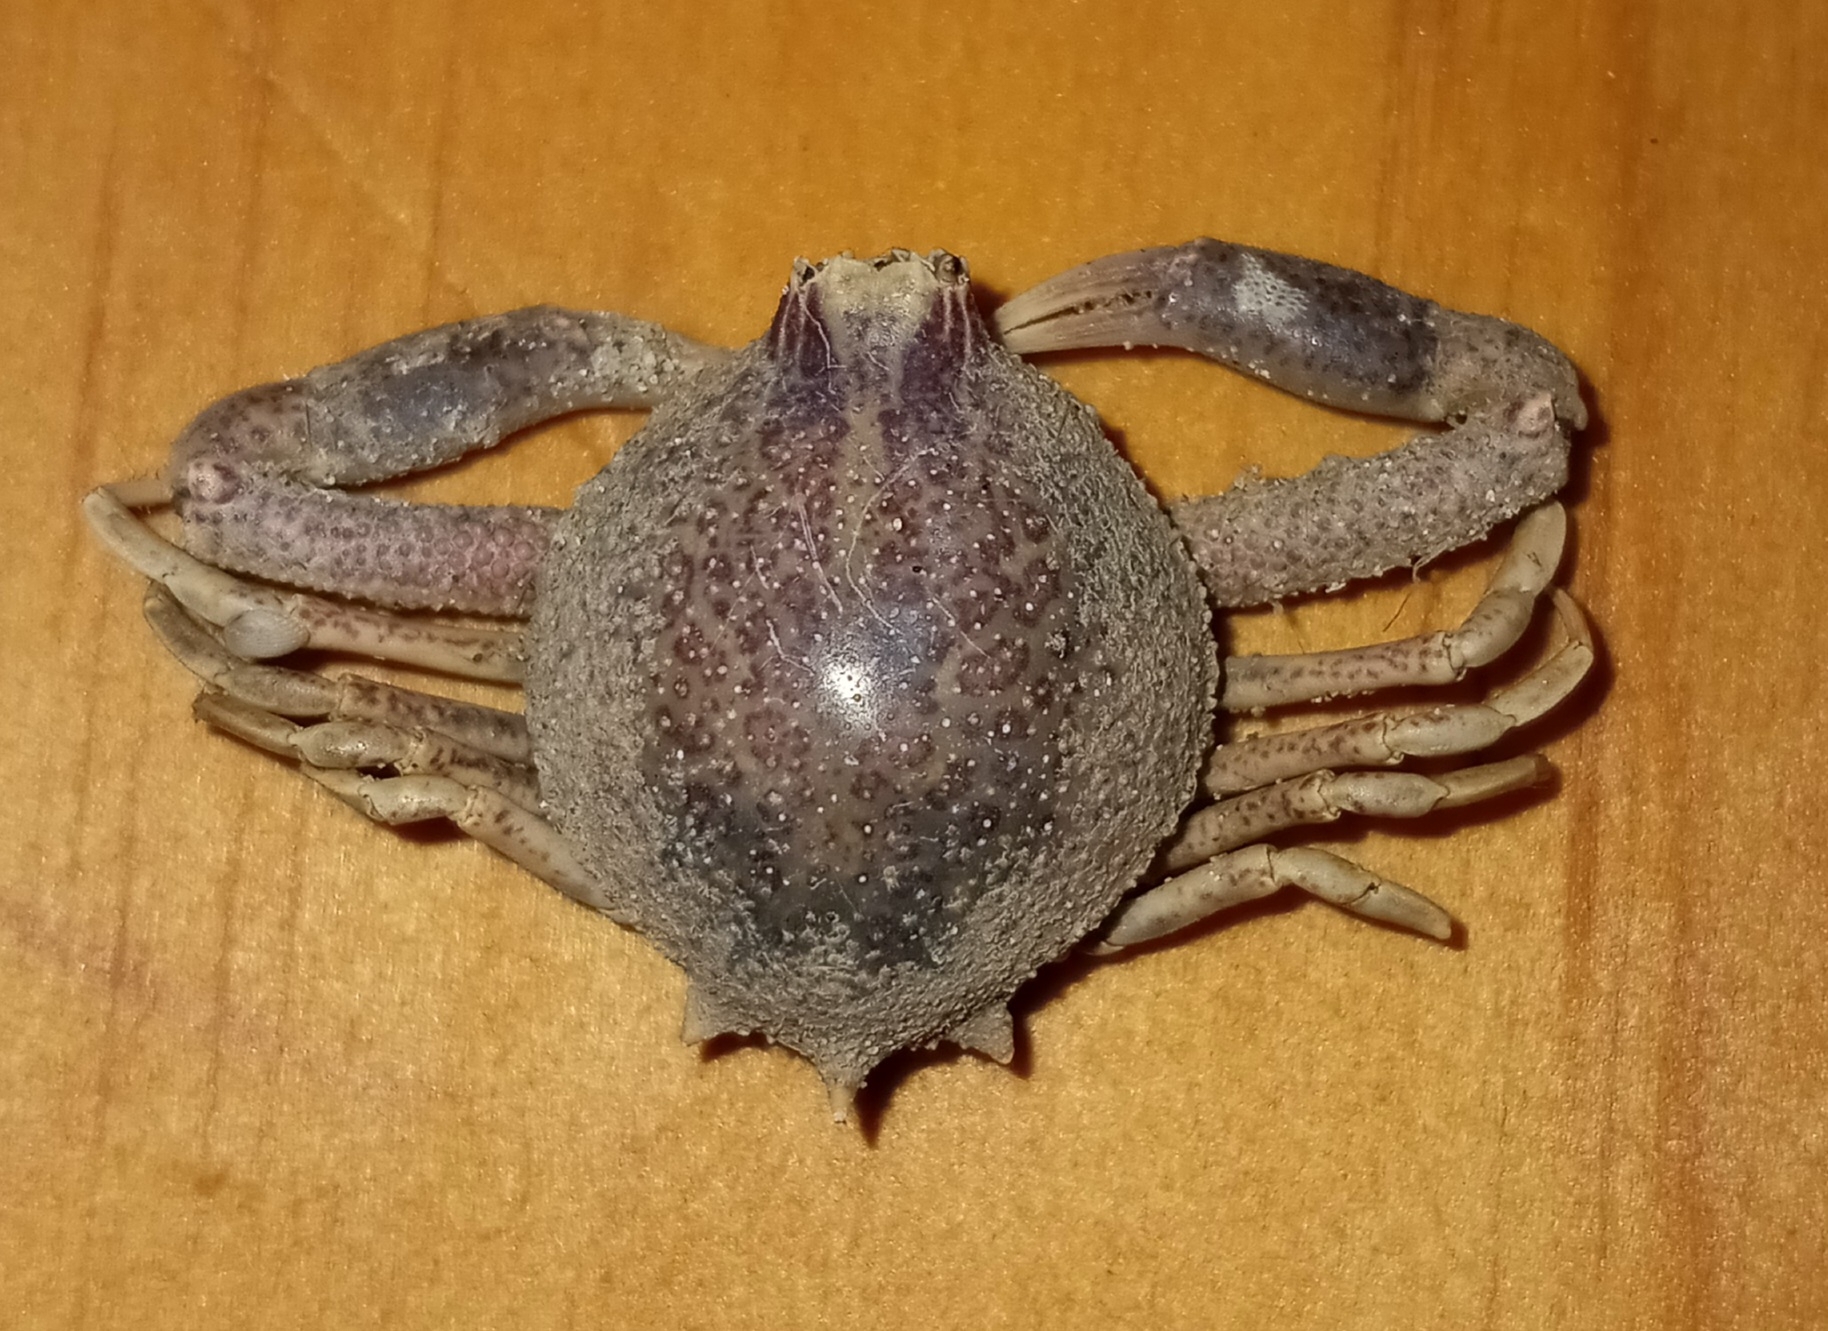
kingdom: Animalia
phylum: Arthropoda
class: Malacostraca
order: Decapoda
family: Leucosiidae
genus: Persephona
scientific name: Persephona aquilonaris
